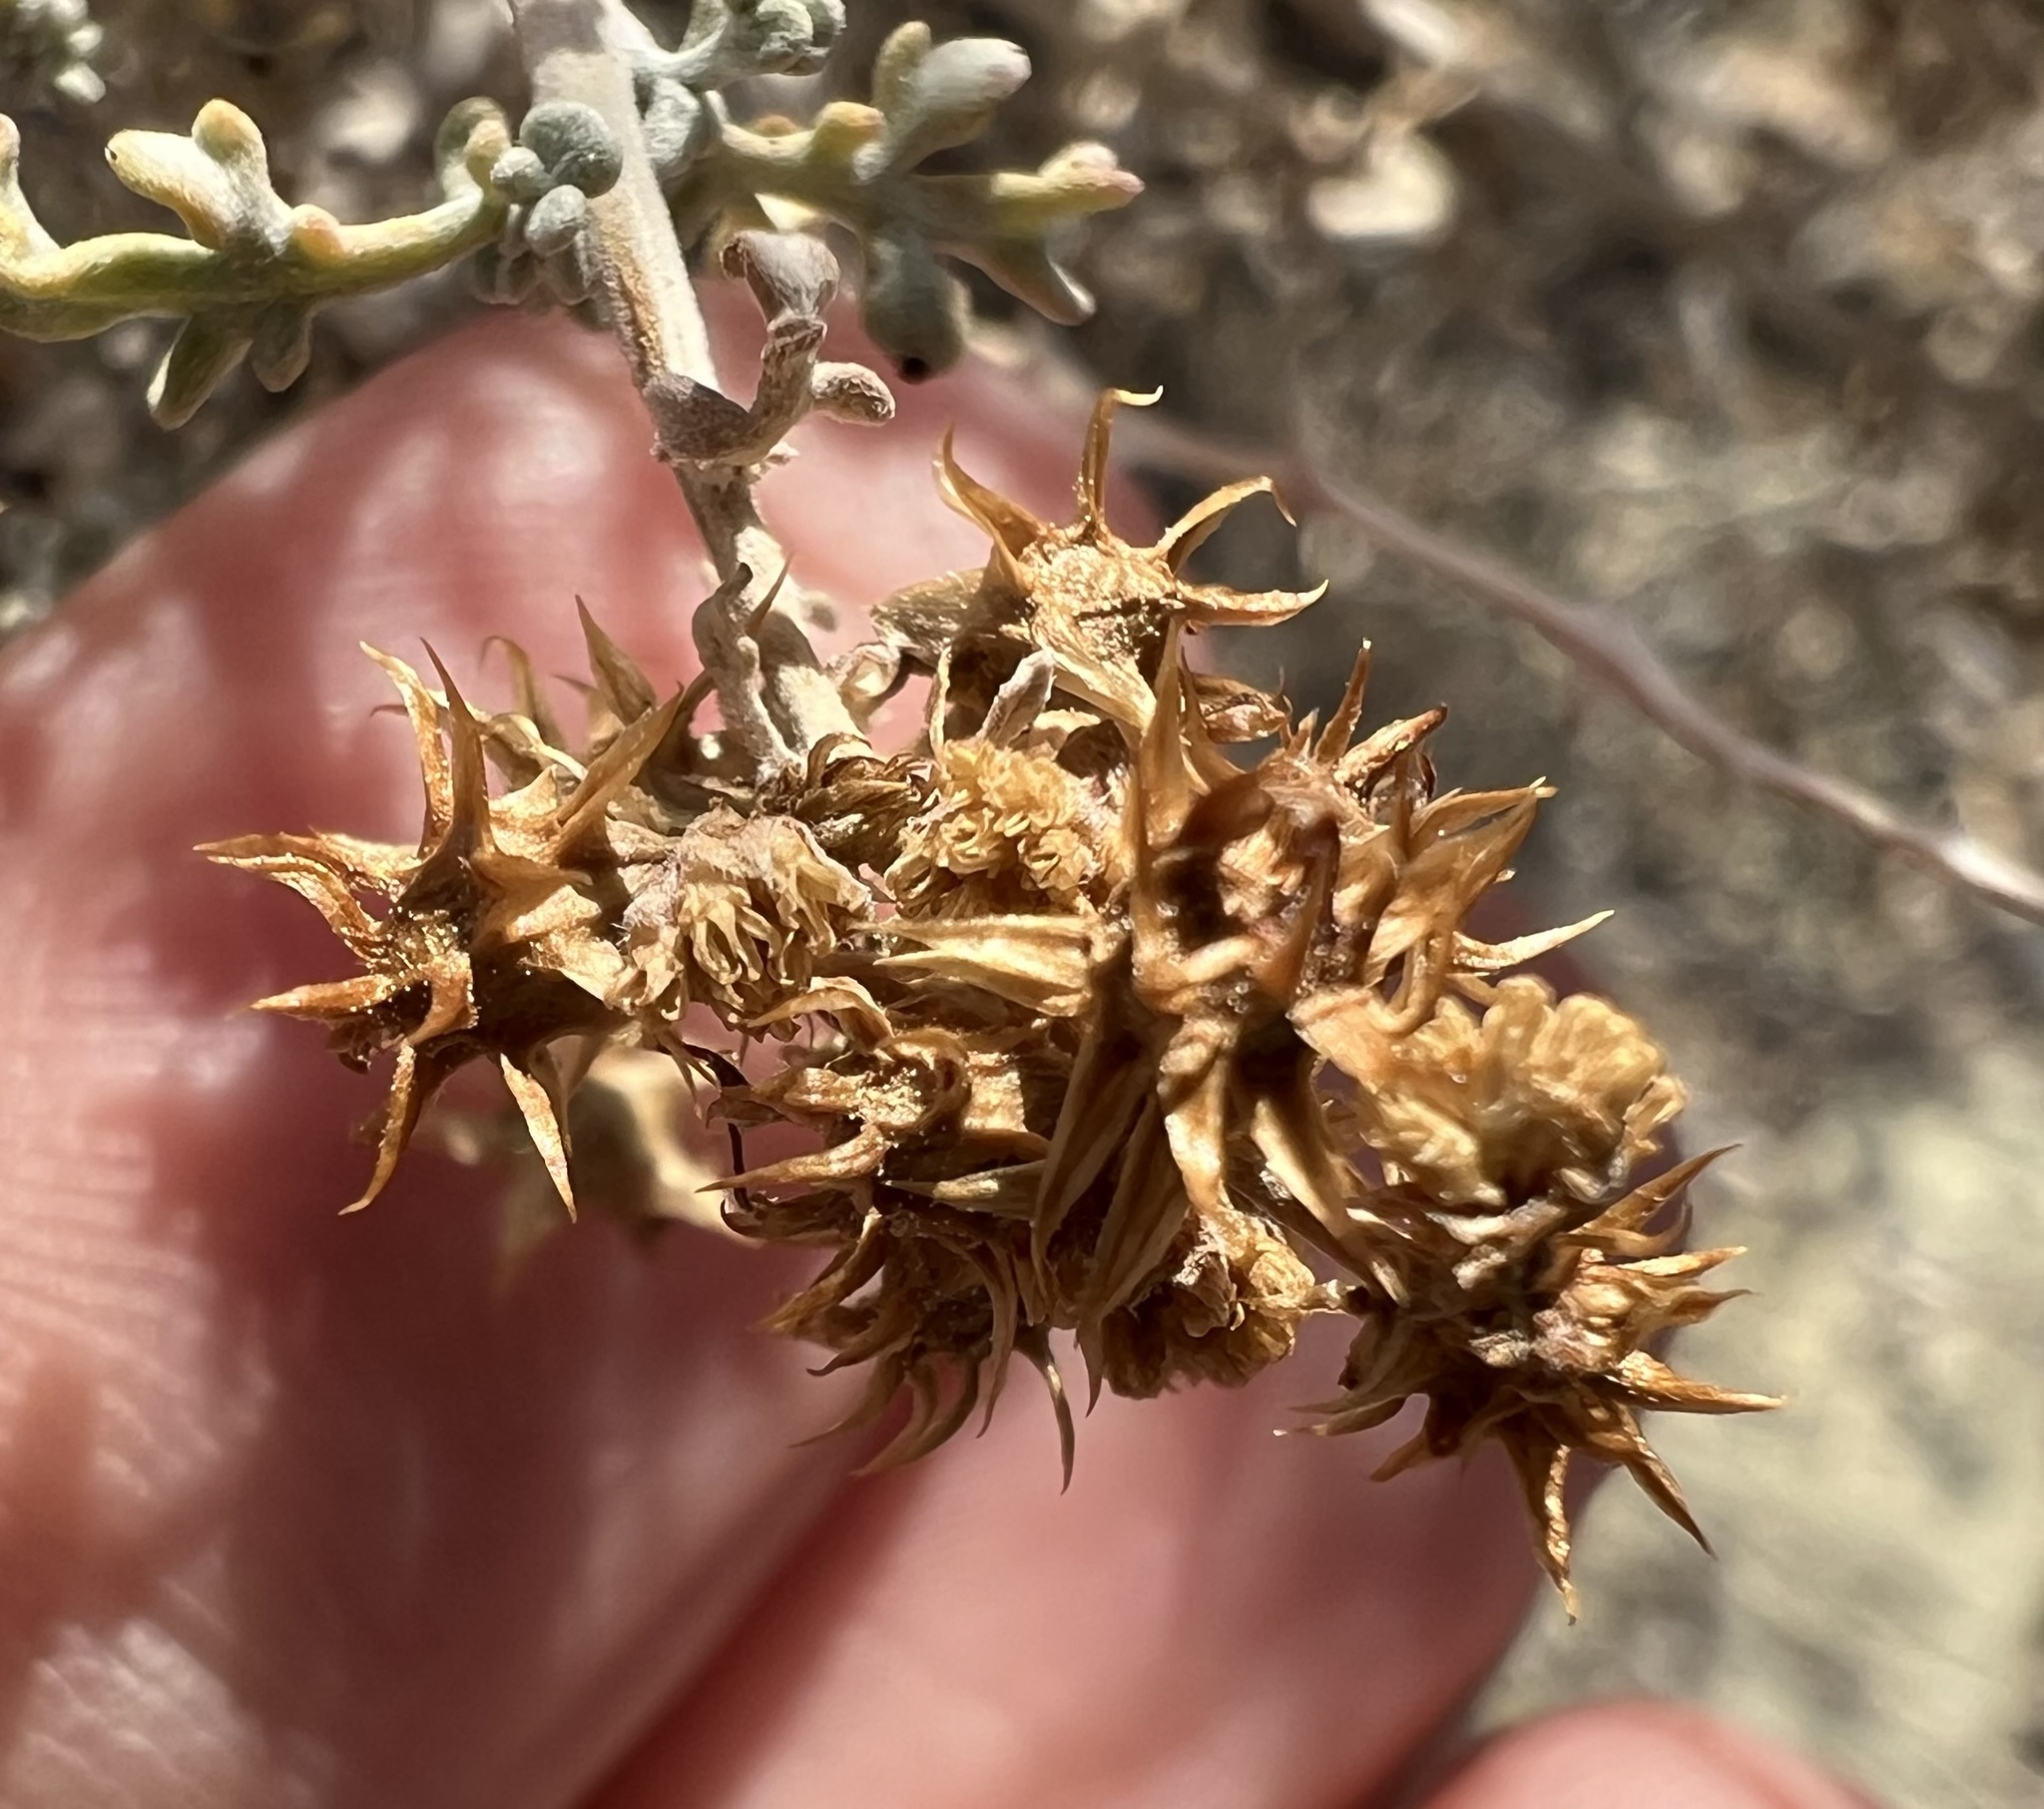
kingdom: Plantae
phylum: Tracheophyta
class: Magnoliopsida
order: Asterales
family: Asteraceae
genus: Ambrosia
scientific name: Ambrosia dumosa
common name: Bur-sage
